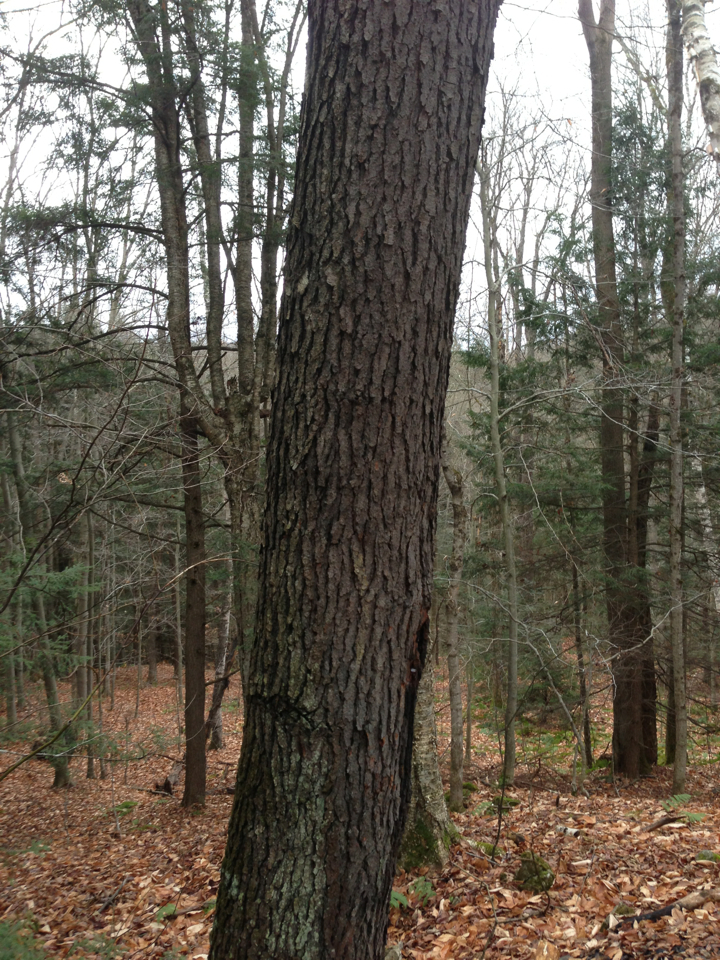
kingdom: Plantae
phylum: Tracheophyta
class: Magnoliopsida
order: Rosales
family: Rosaceae
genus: Prunus
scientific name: Prunus serotina
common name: Black cherry
